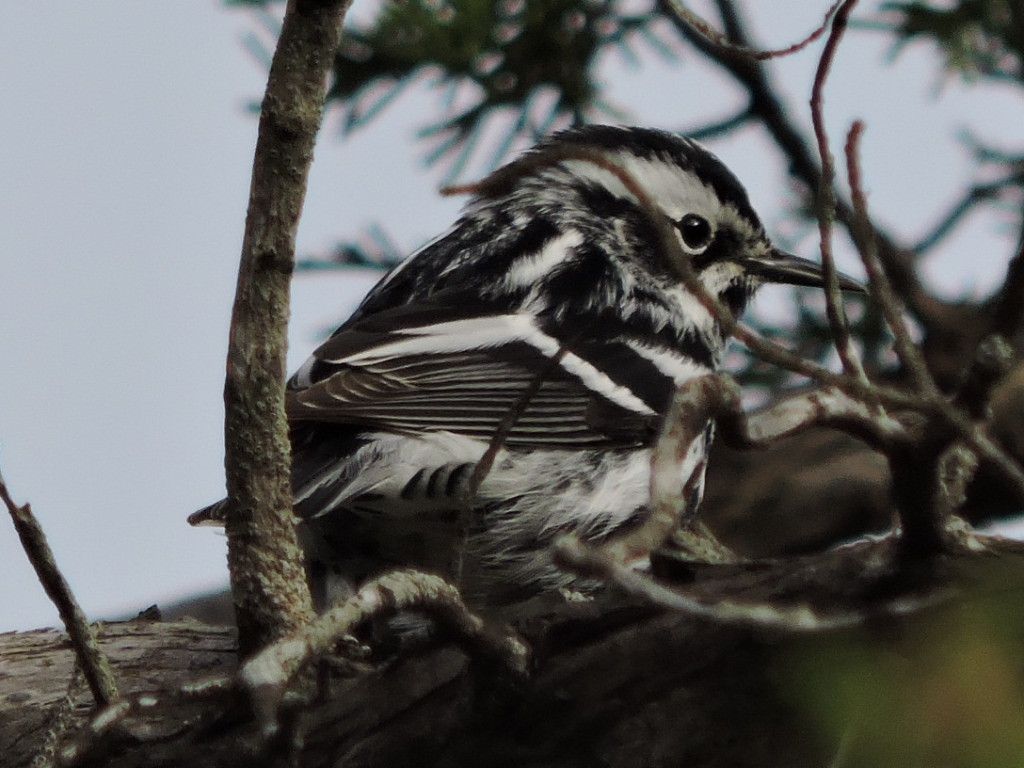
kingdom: Animalia
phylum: Chordata
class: Aves
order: Passeriformes
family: Parulidae
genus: Mniotilta
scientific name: Mniotilta varia
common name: Black-and-white warbler
